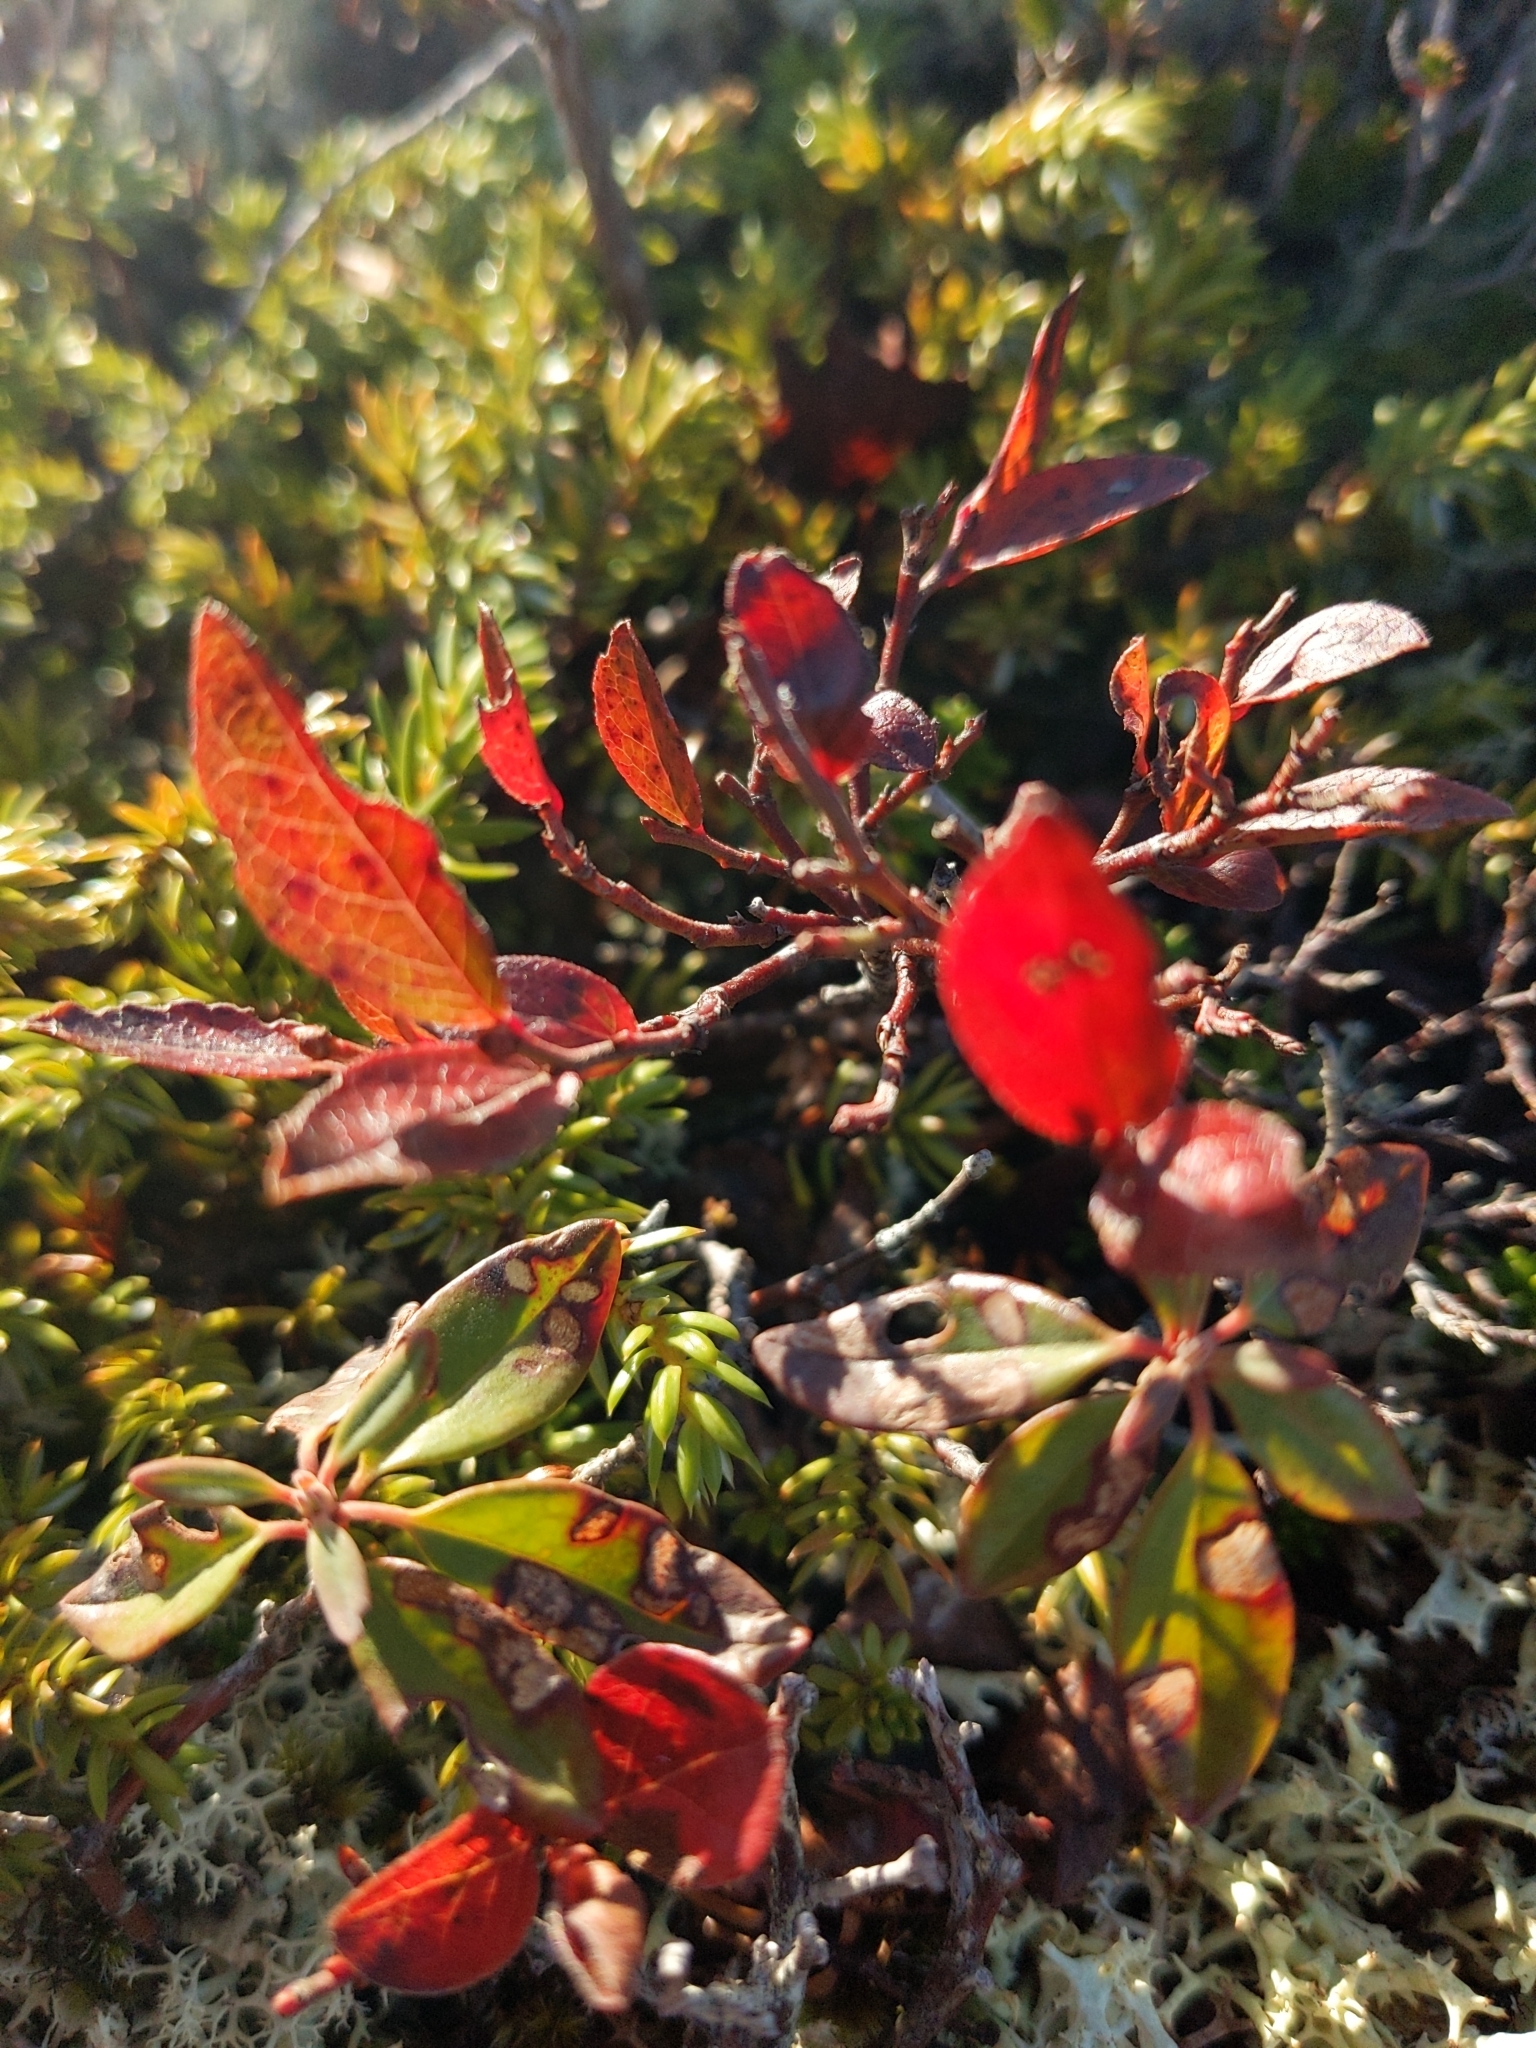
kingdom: Plantae
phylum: Tracheophyta
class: Magnoliopsida
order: Ericales
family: Ericaceae
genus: Vaccinium
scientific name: Vaccinium angustifolium
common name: Early lowbush blueberry
